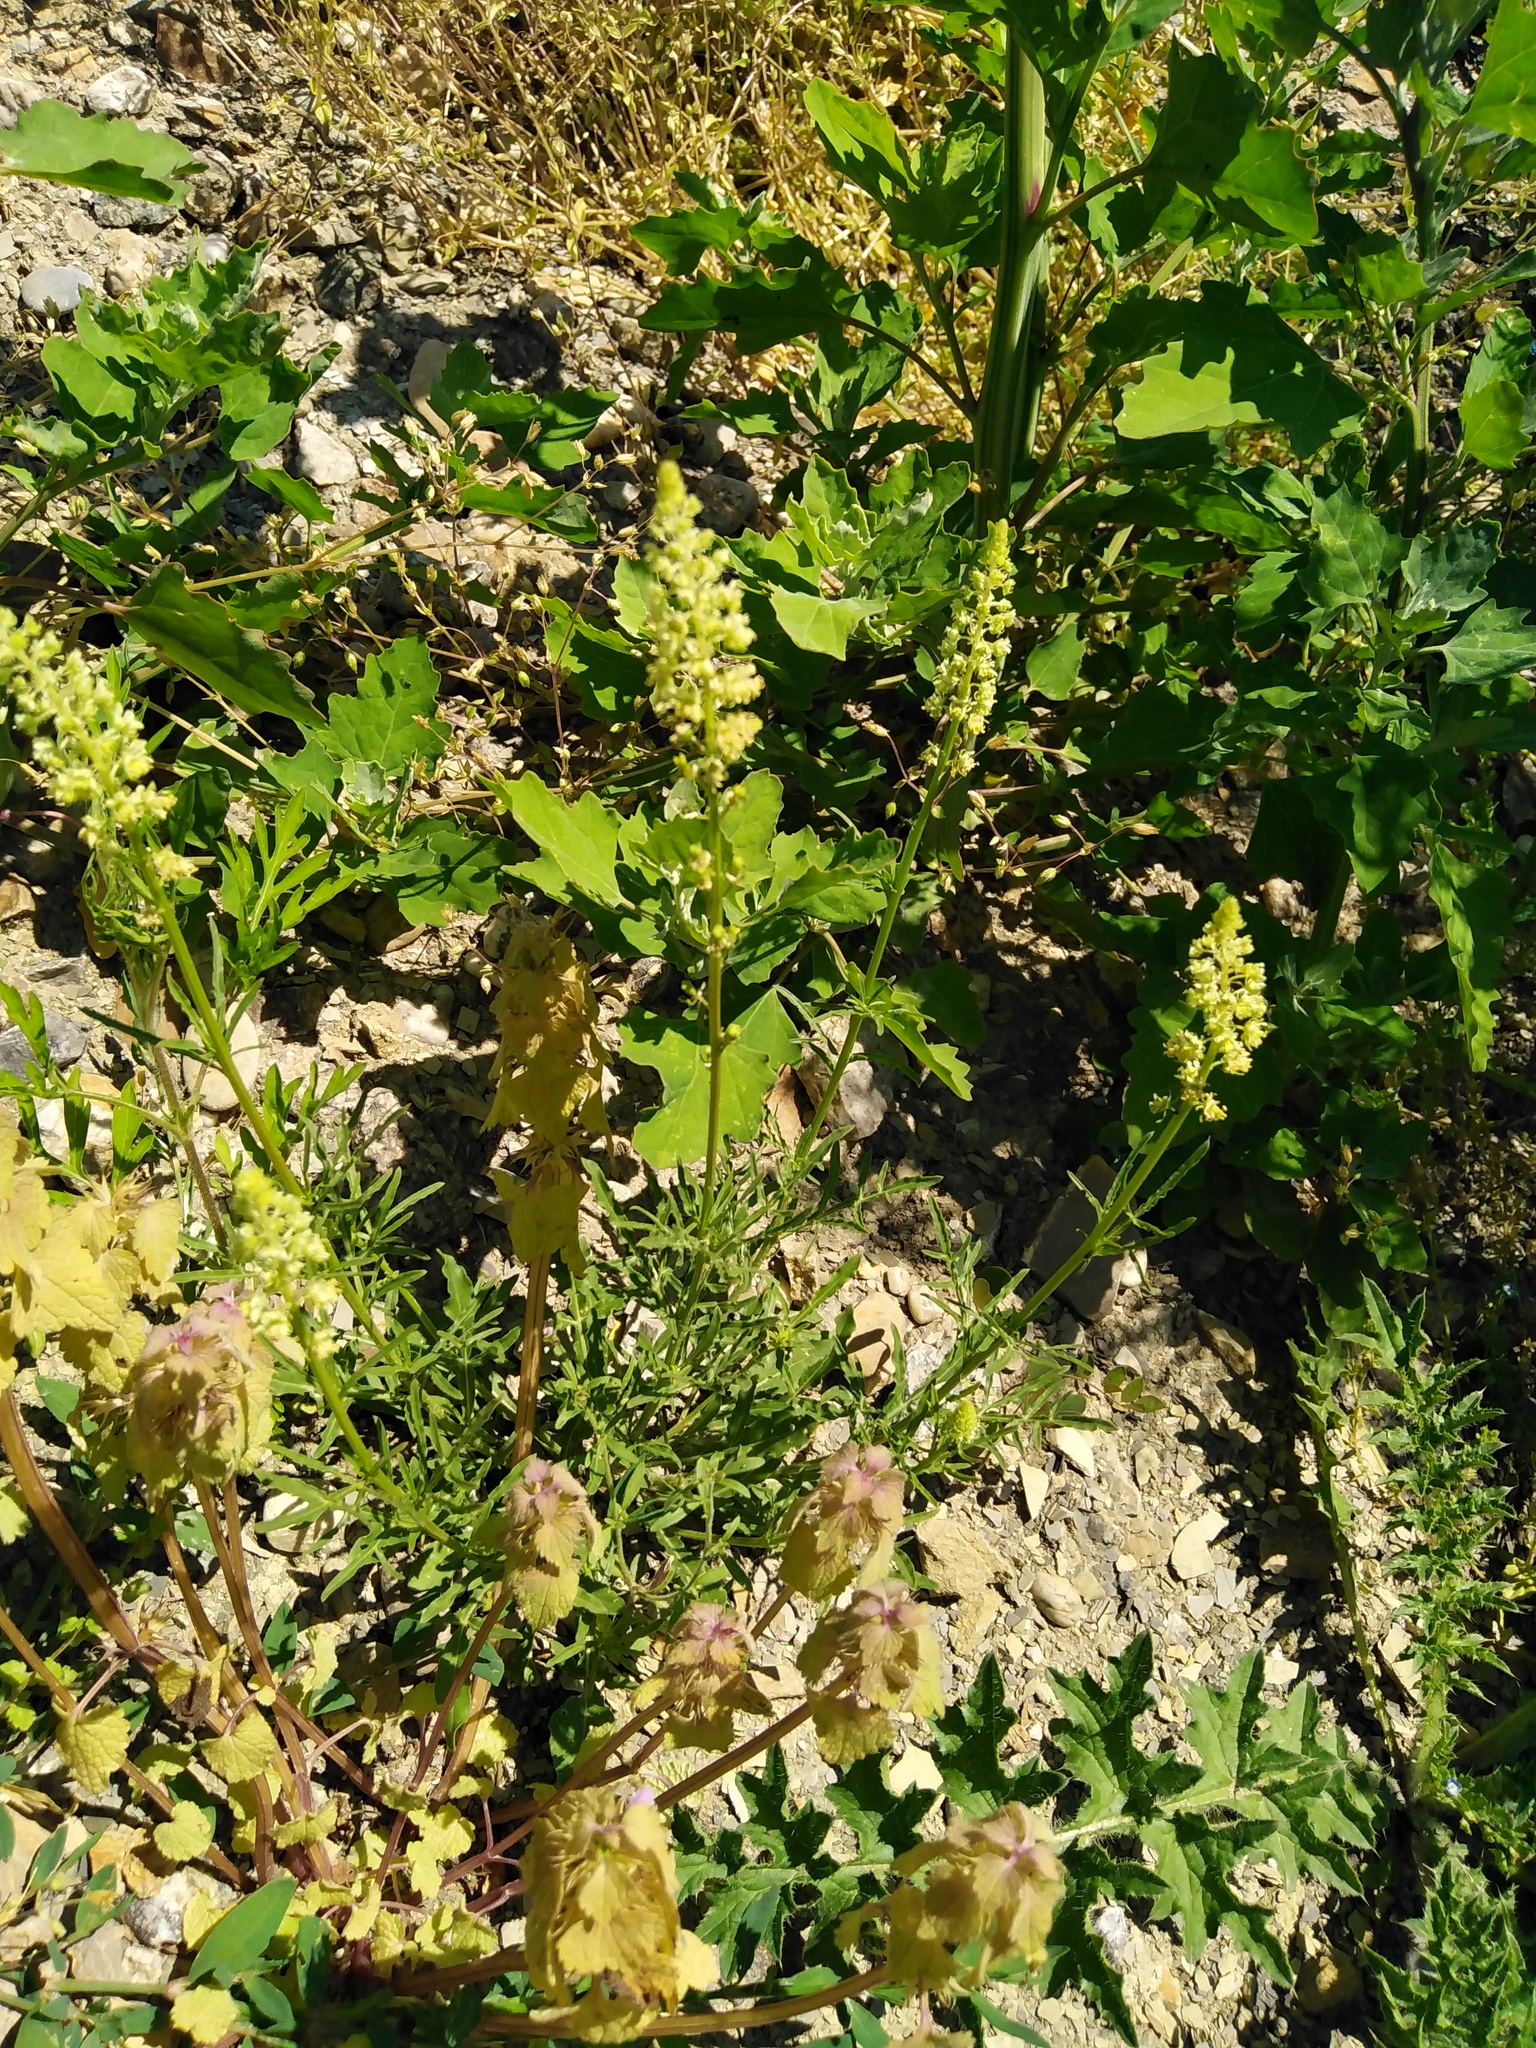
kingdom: Plantae
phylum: Tracheophyta
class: Magnoliopsida
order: Brassicales
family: Resedaceae
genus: Reseda
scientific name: Reseda lutea
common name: Wild mignonette
